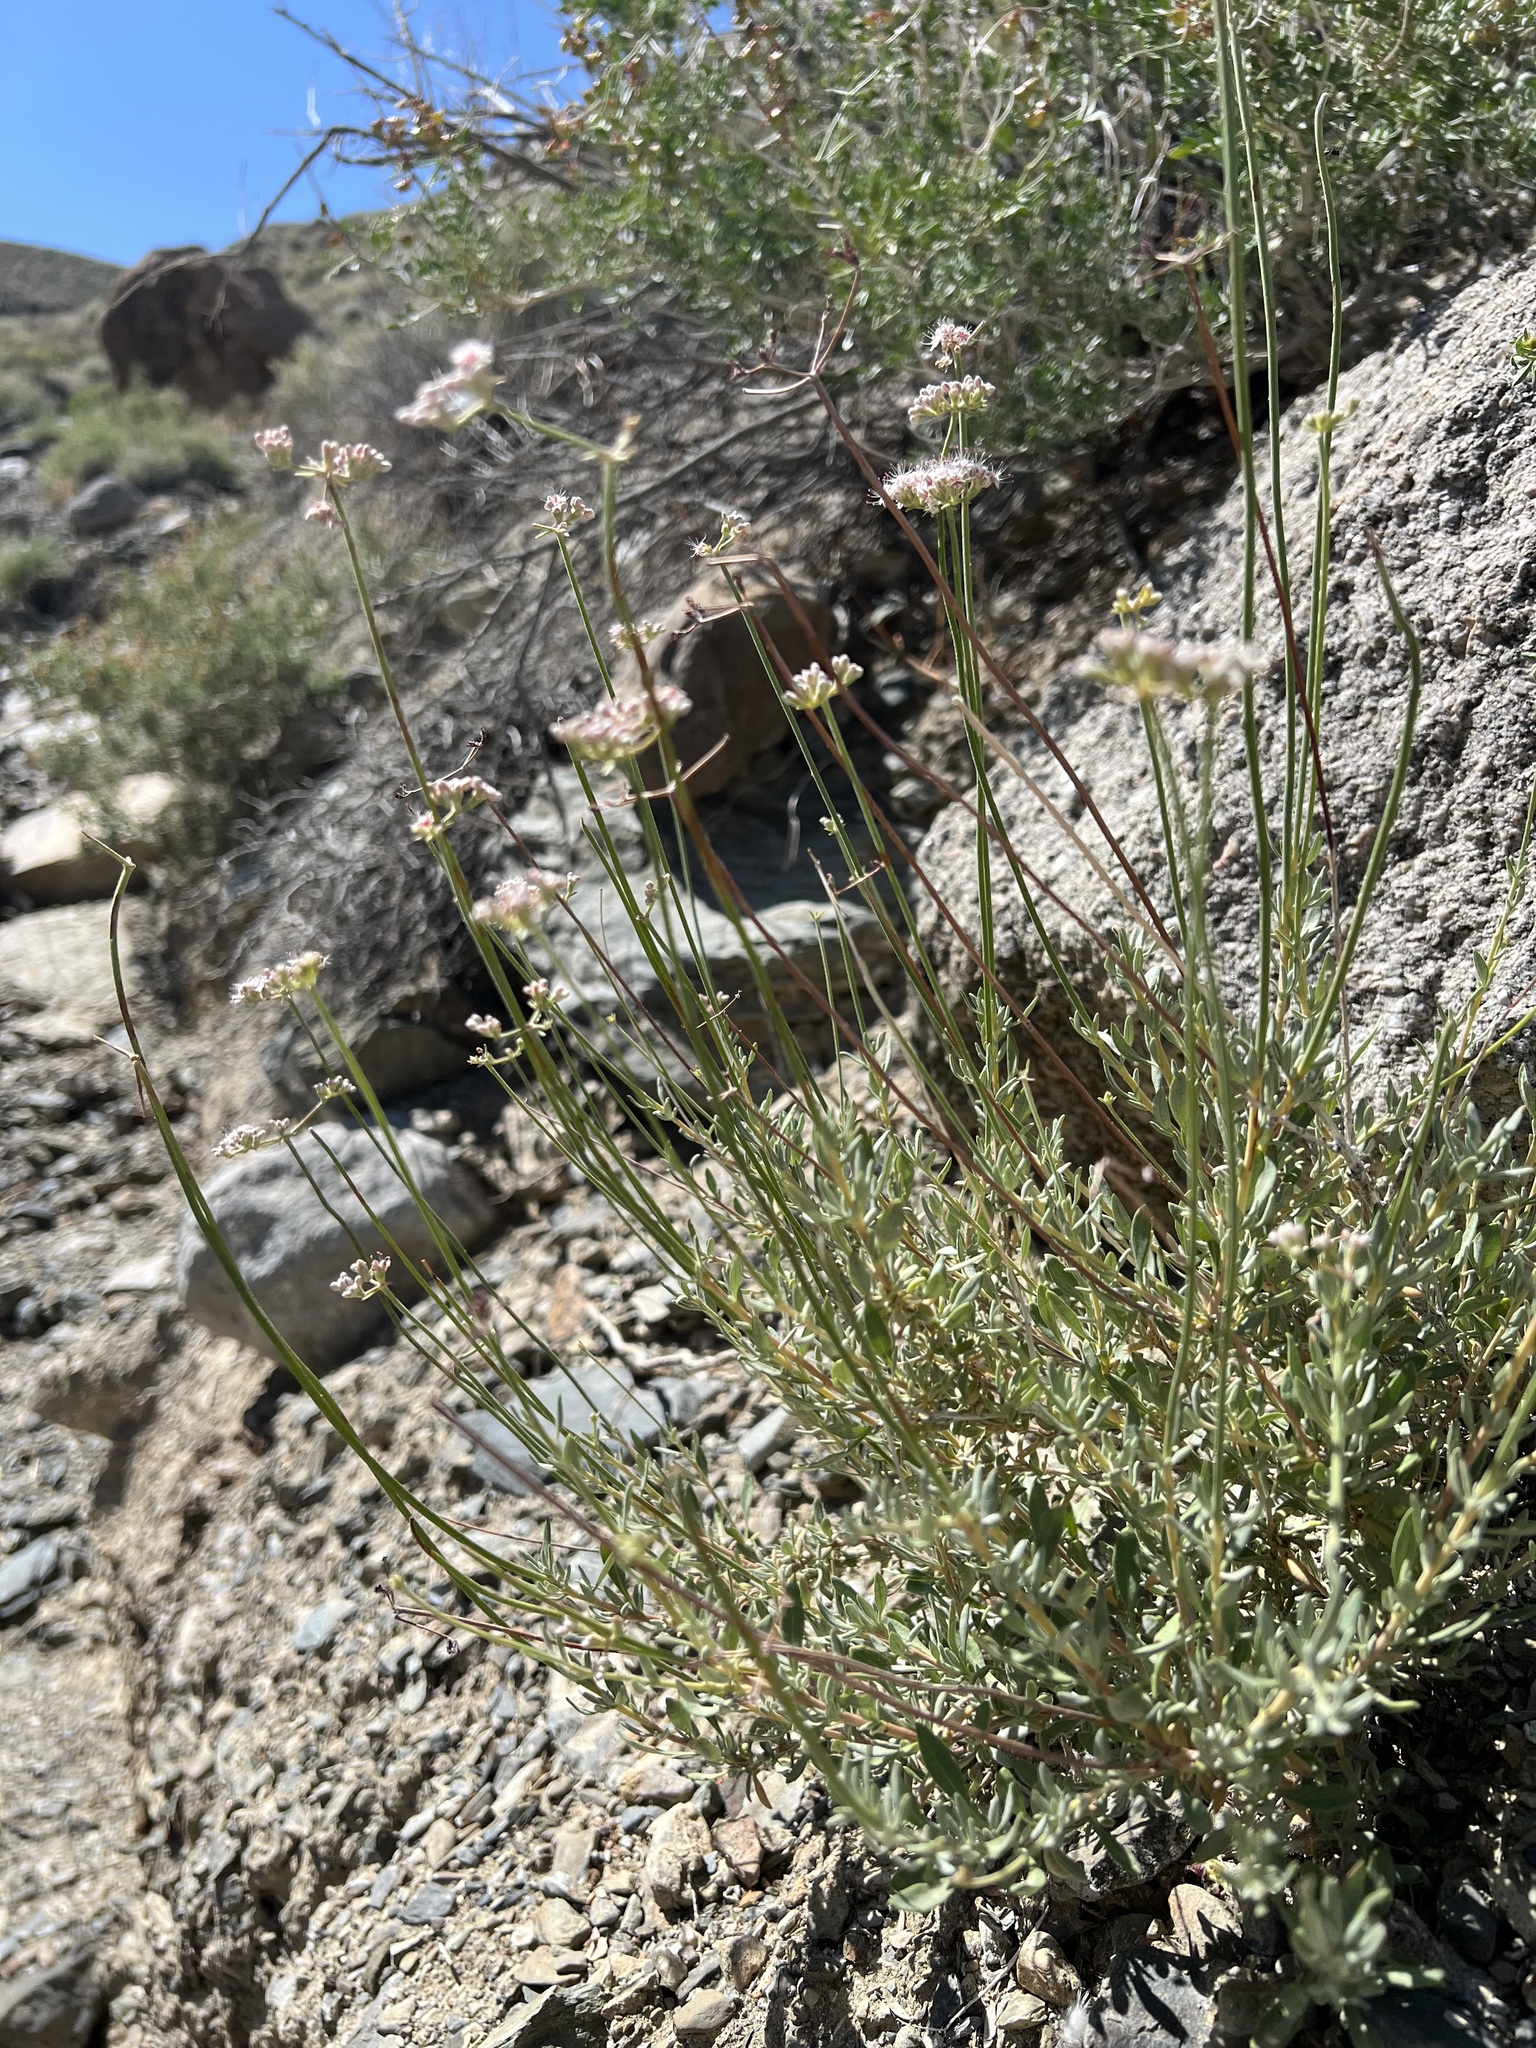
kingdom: Plantae
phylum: Tracheophyta
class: Magnoliopsida
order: Caryophyllales
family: Polygonaceae
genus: Eriogonum
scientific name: Eriogonum fasciculatum
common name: California wild buckwheat
